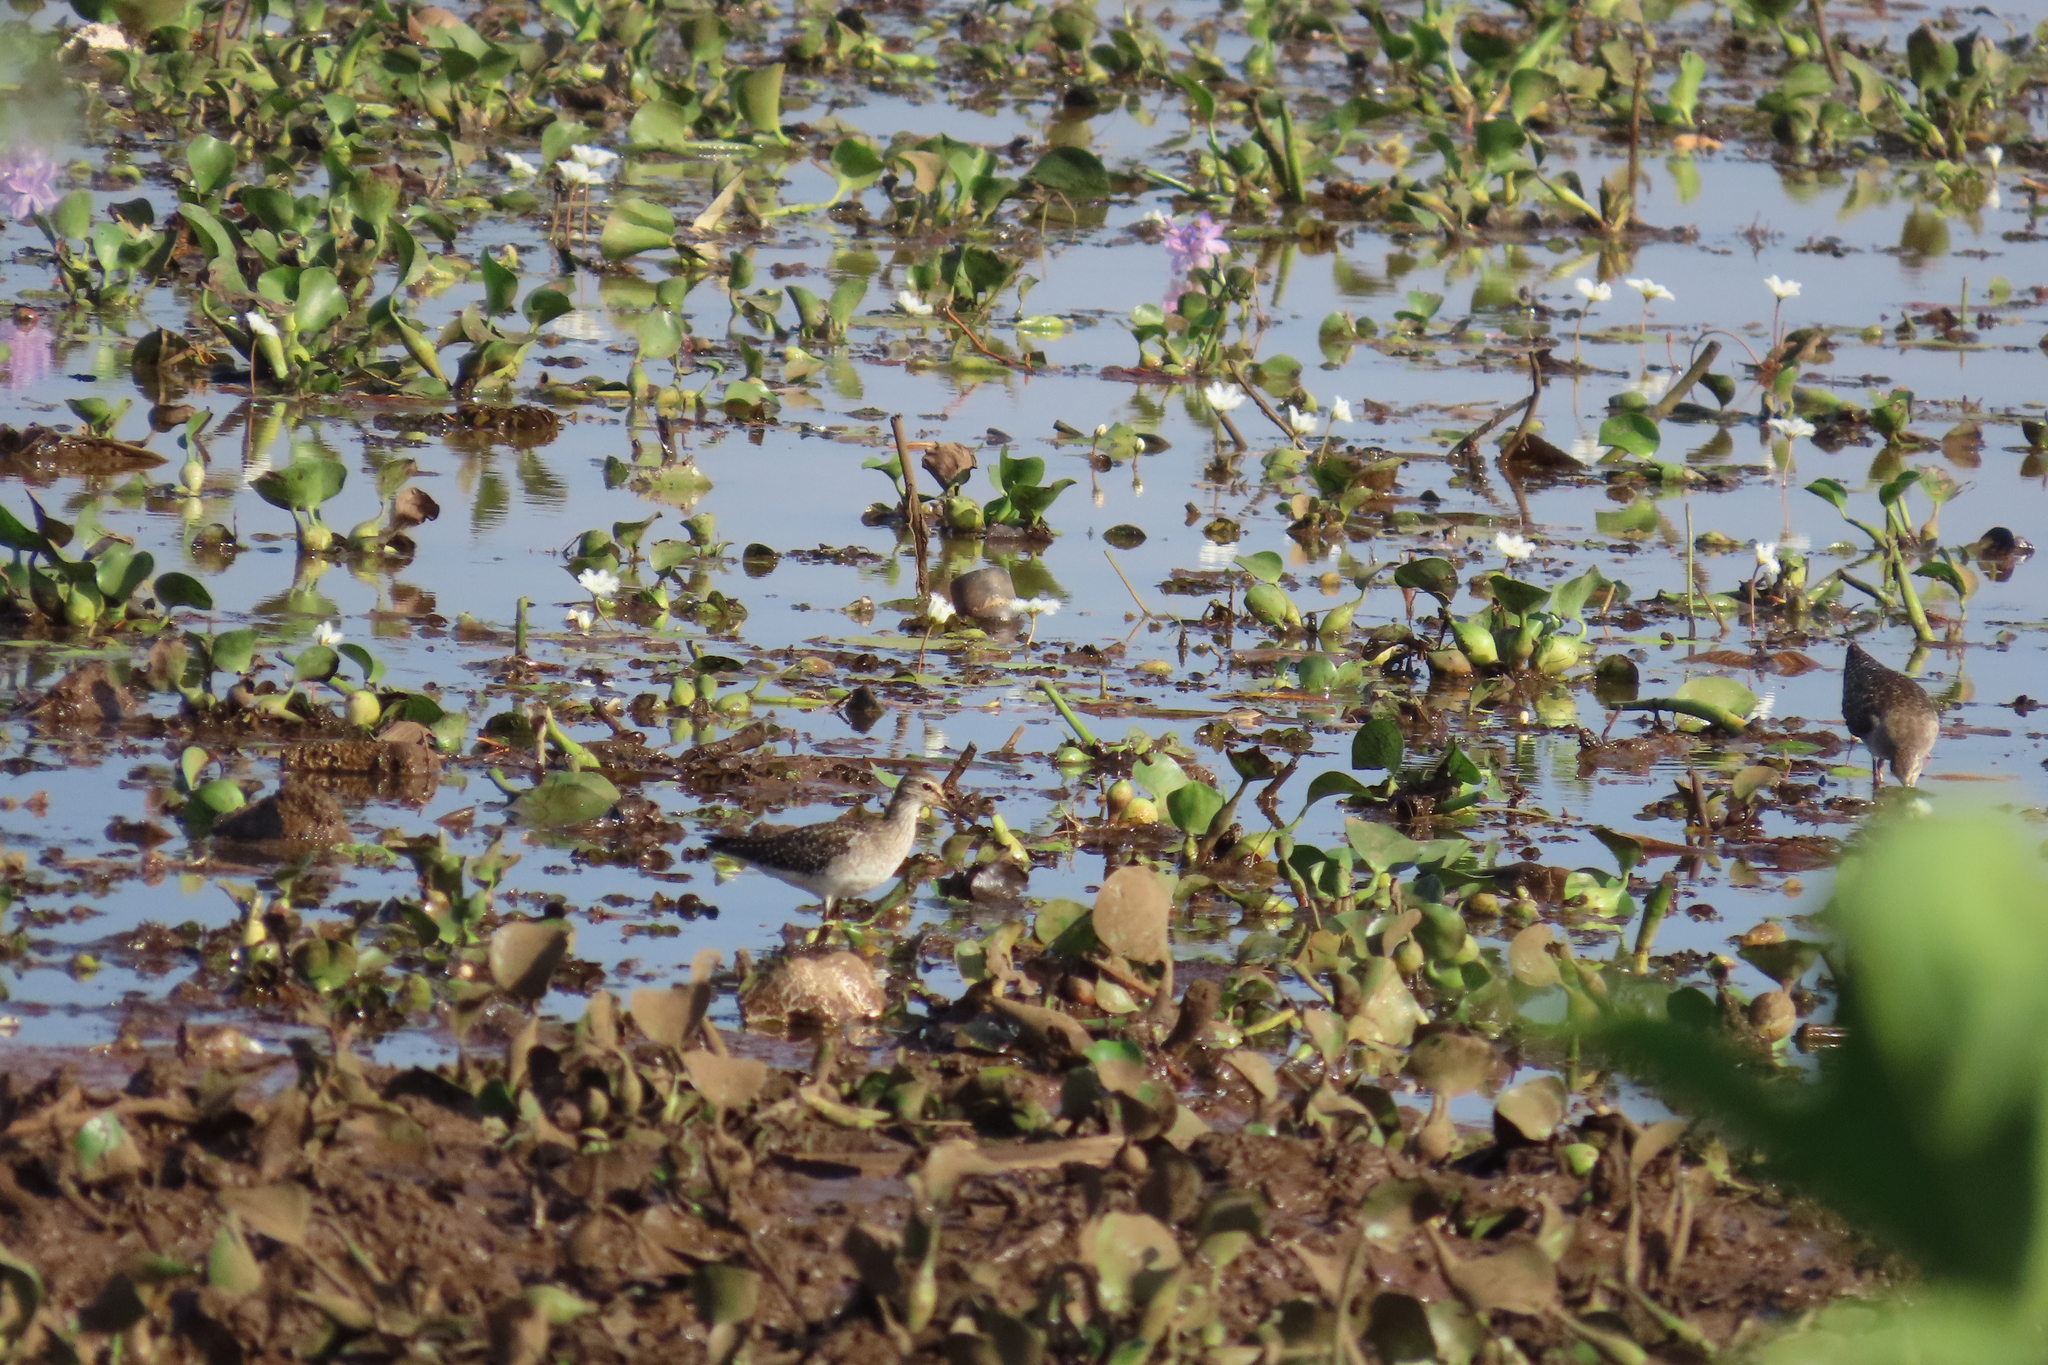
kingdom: Animalia
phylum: Chordata
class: Aves
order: Charadriiformes
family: Scolopacidae
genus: Tringa
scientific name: Tringa glareola
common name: Wood sandpiper
